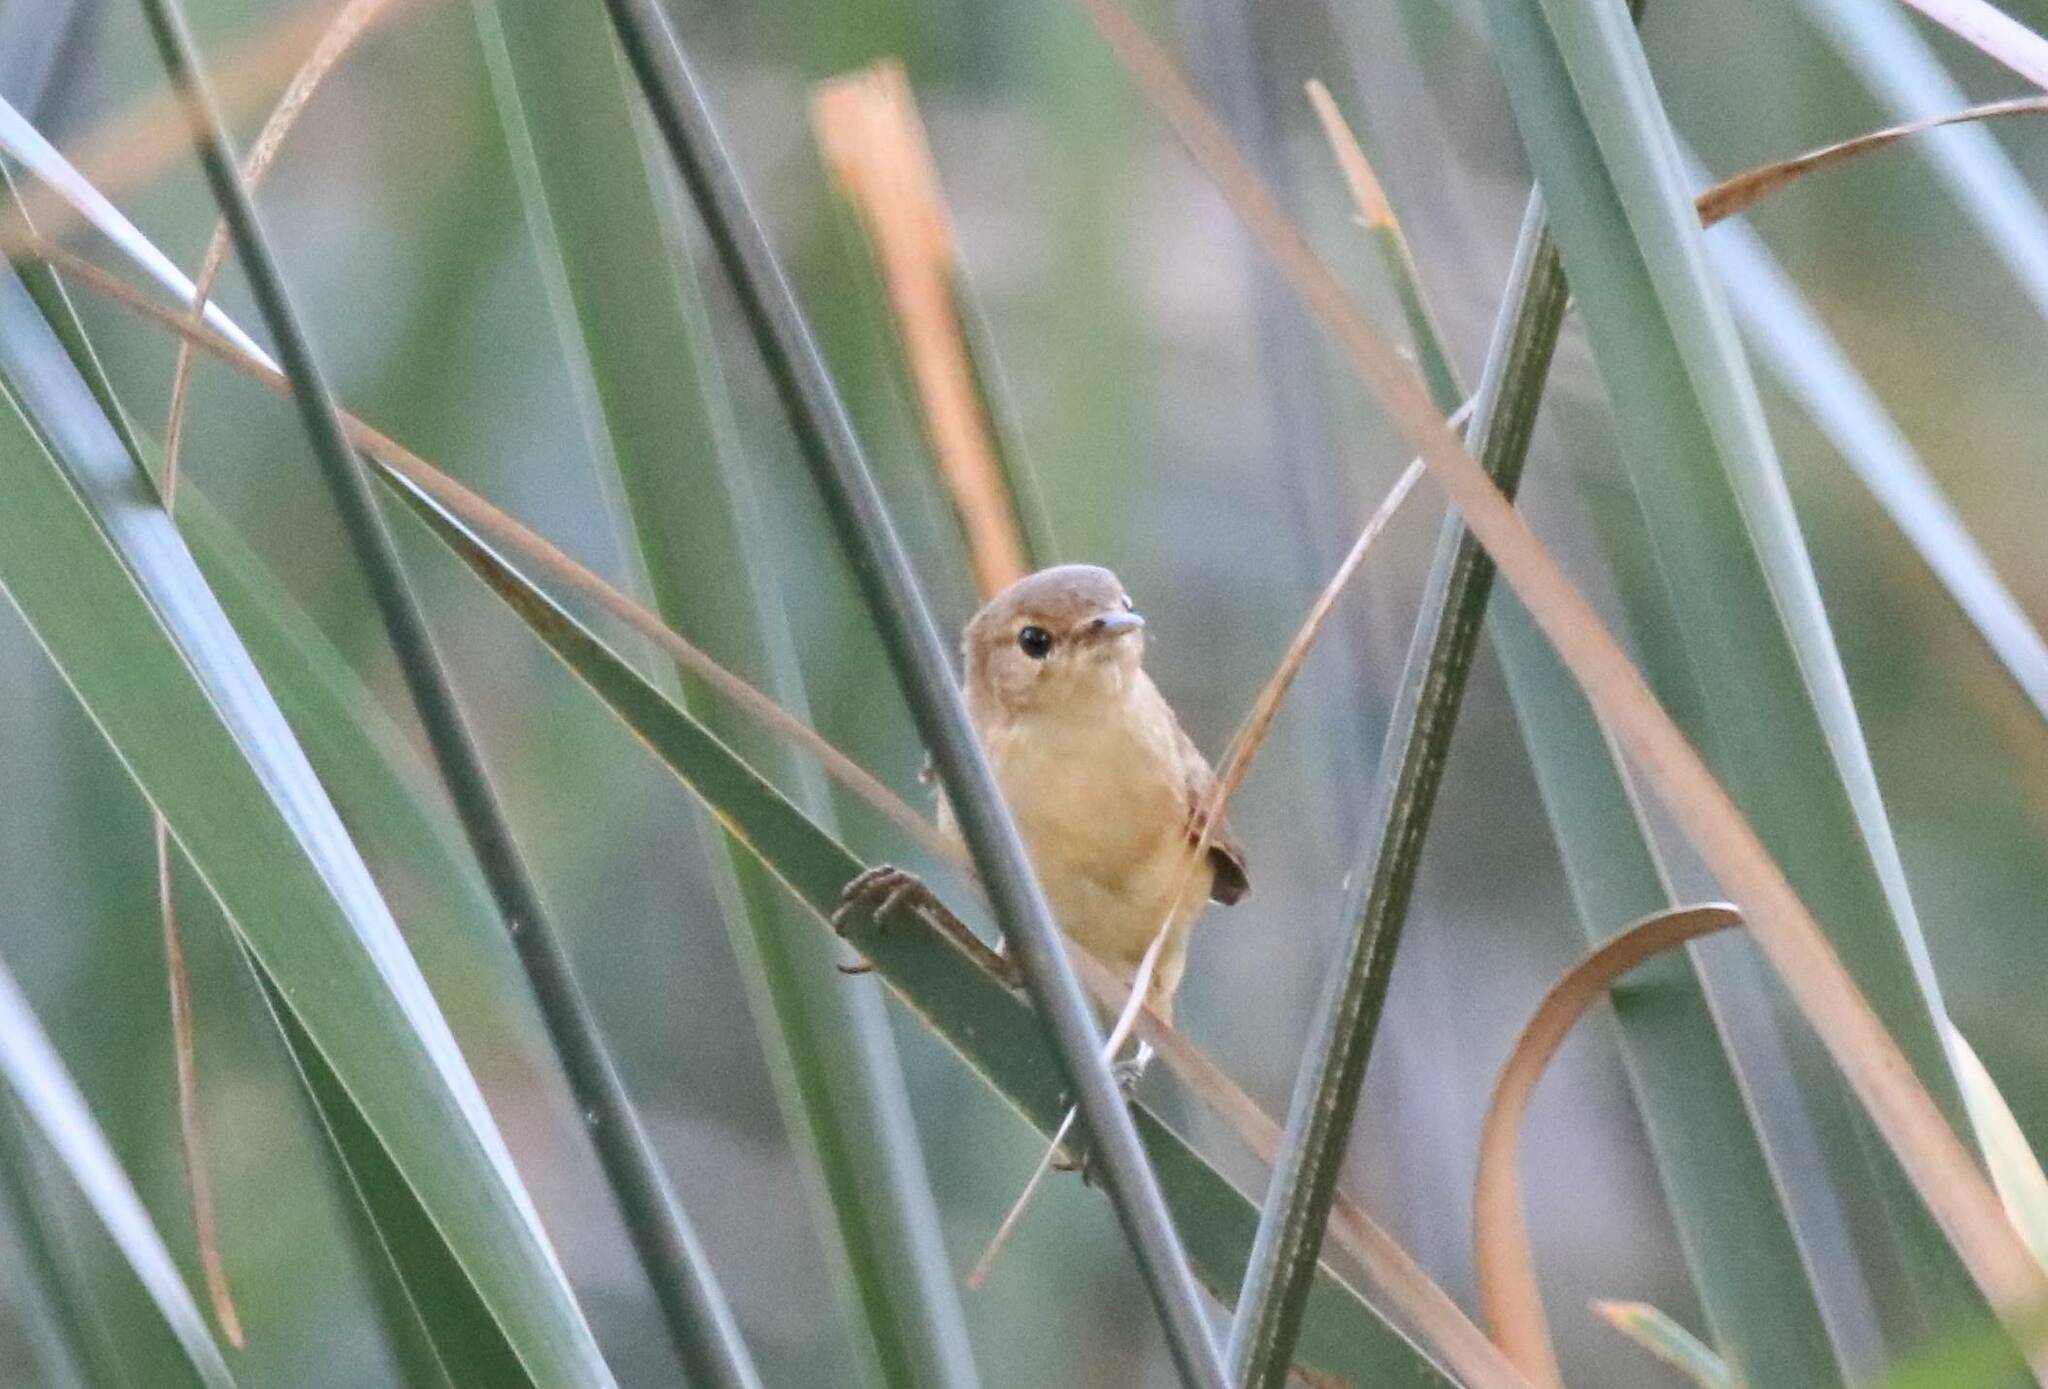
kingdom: Animalia
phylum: Chordata
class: Aves
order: Passeriformes
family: Acrocephalidae
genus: Acrocephalus
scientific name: Acrocephalus scirpaceus
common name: Eurasian reed warbler
